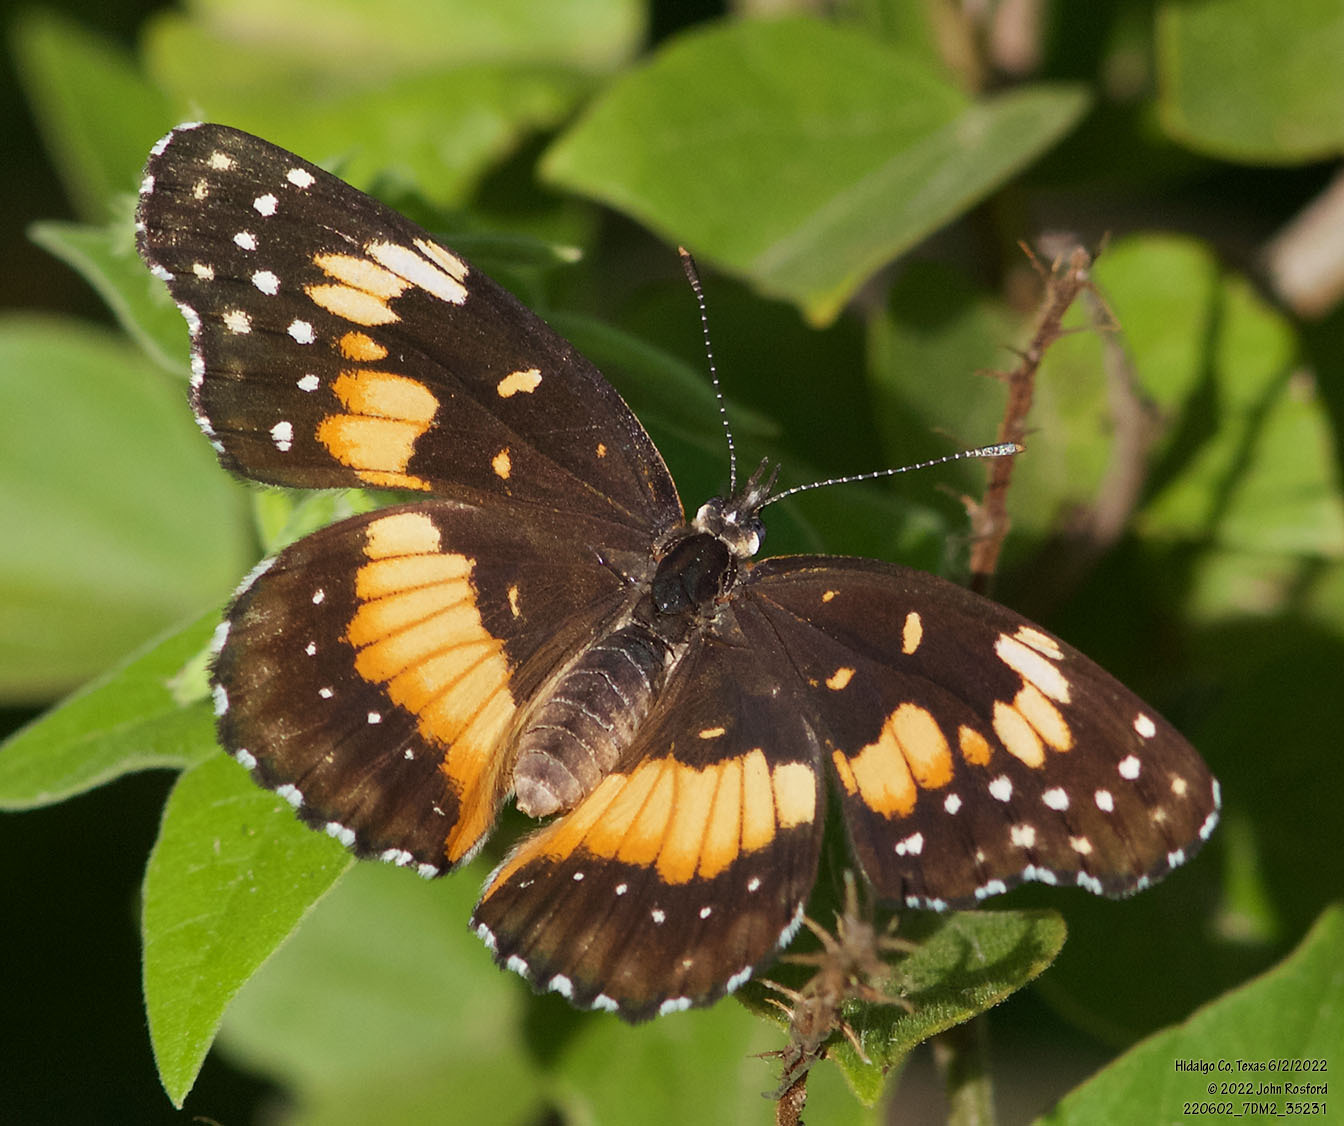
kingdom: Animalia
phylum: Arthropoda
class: Insecta
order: Lepidoptera
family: Nymphalidae
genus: Chlosyne
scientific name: Chlosyne lacinia
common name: Bordered patch
